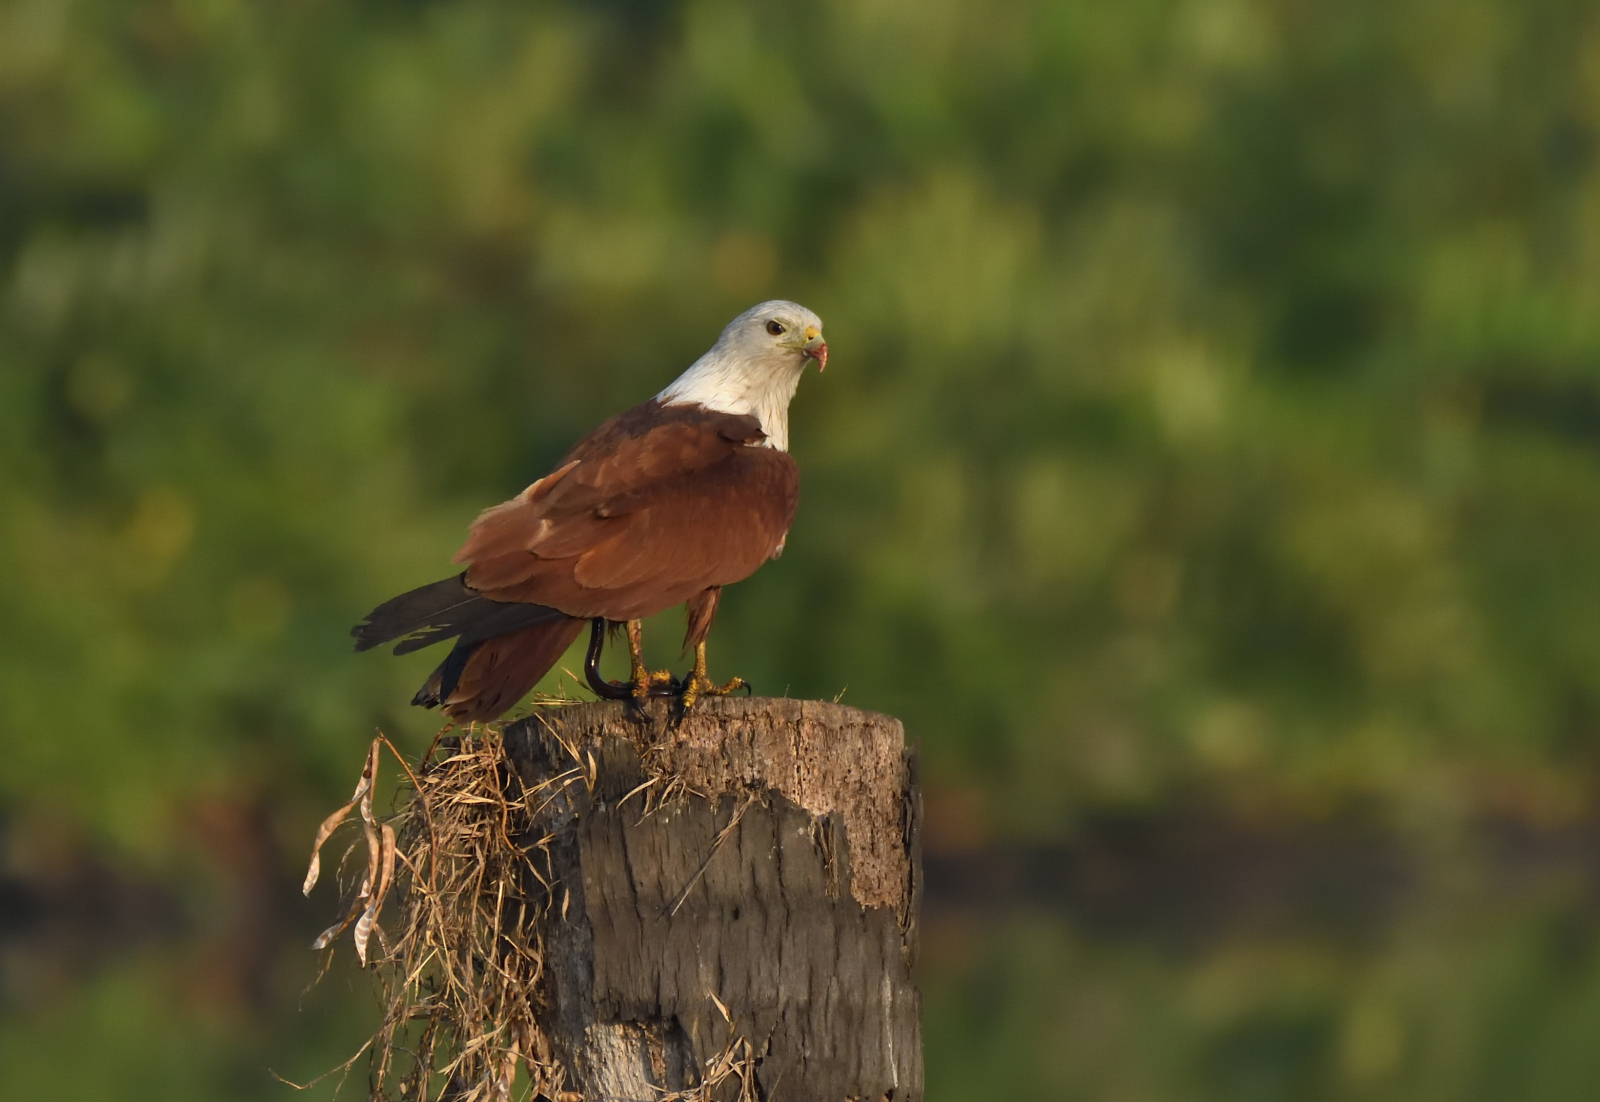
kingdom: Animalia
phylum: Chordata
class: Aves
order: Accipitriformes
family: Accipitridae
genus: Haliastur
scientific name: Haliastur indus
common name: Brahminy kite
